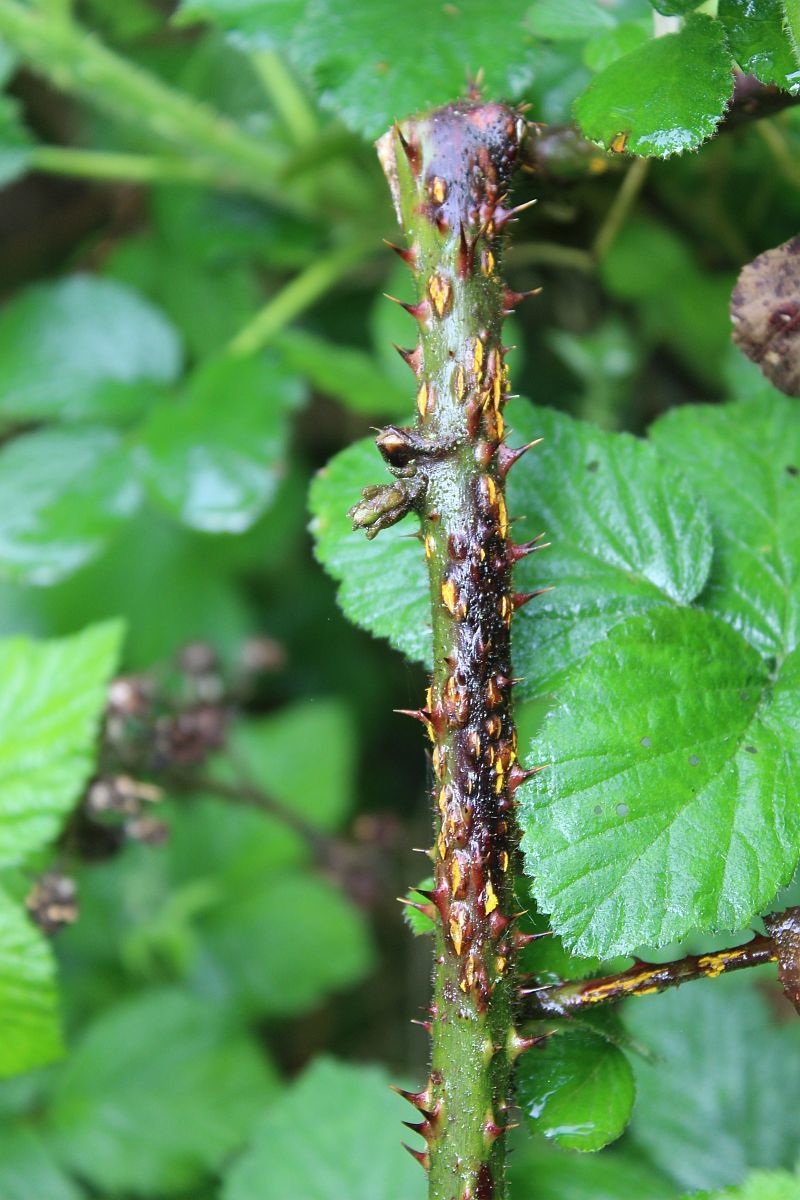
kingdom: Fungi
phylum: Basidiomycota
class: Pucciniomycetes
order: Pucciniales
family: Phragmidiaceae
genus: Kuehneola
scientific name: Kuehneola uredinis
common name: Bramble stem rust
